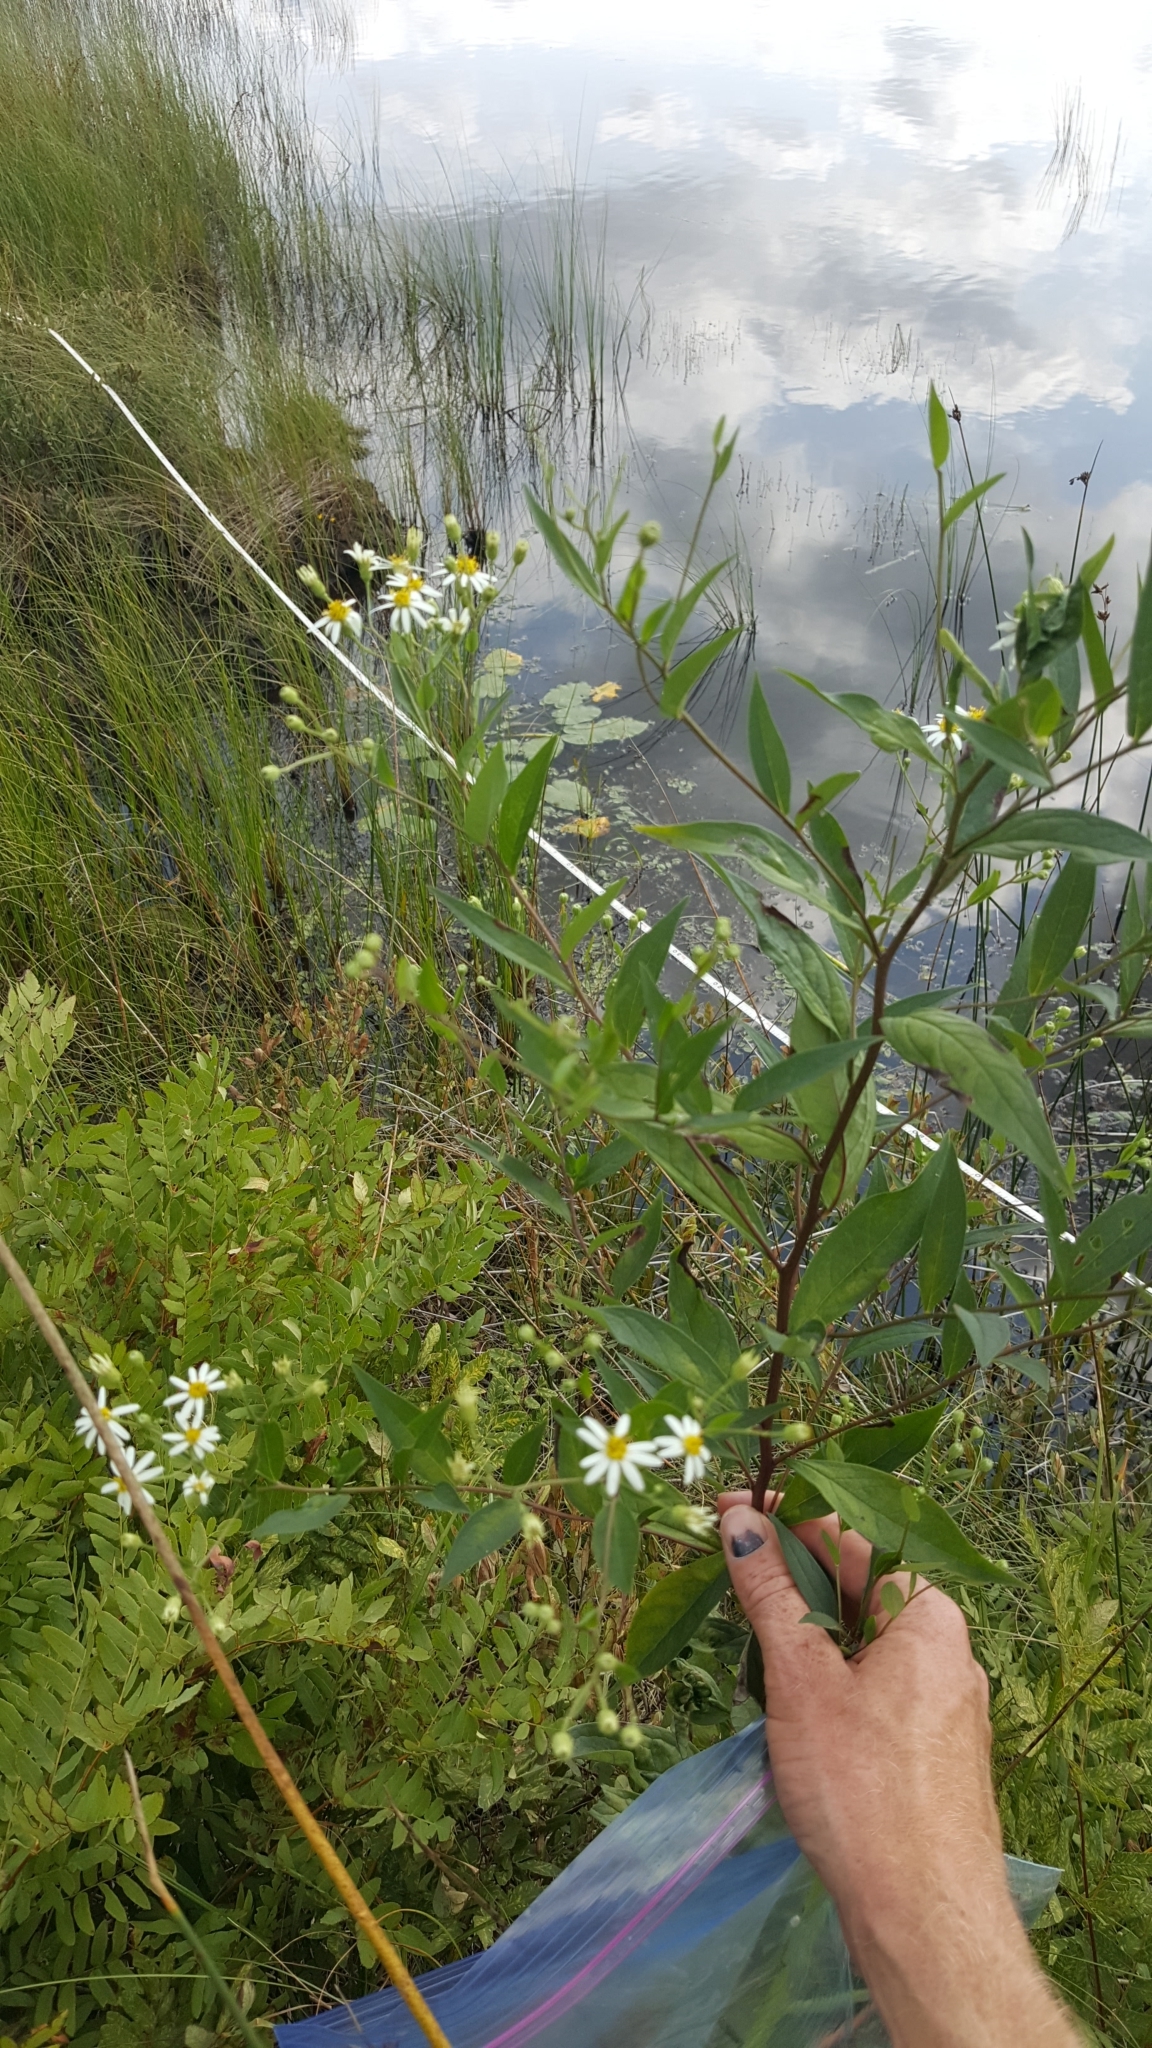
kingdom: Plantae
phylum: Tracheophyta
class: Magnoliopsida
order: Asterales
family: Asteraceae
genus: Doellingeria
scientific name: Doellingeria umbellata
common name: Flat-top white aster
